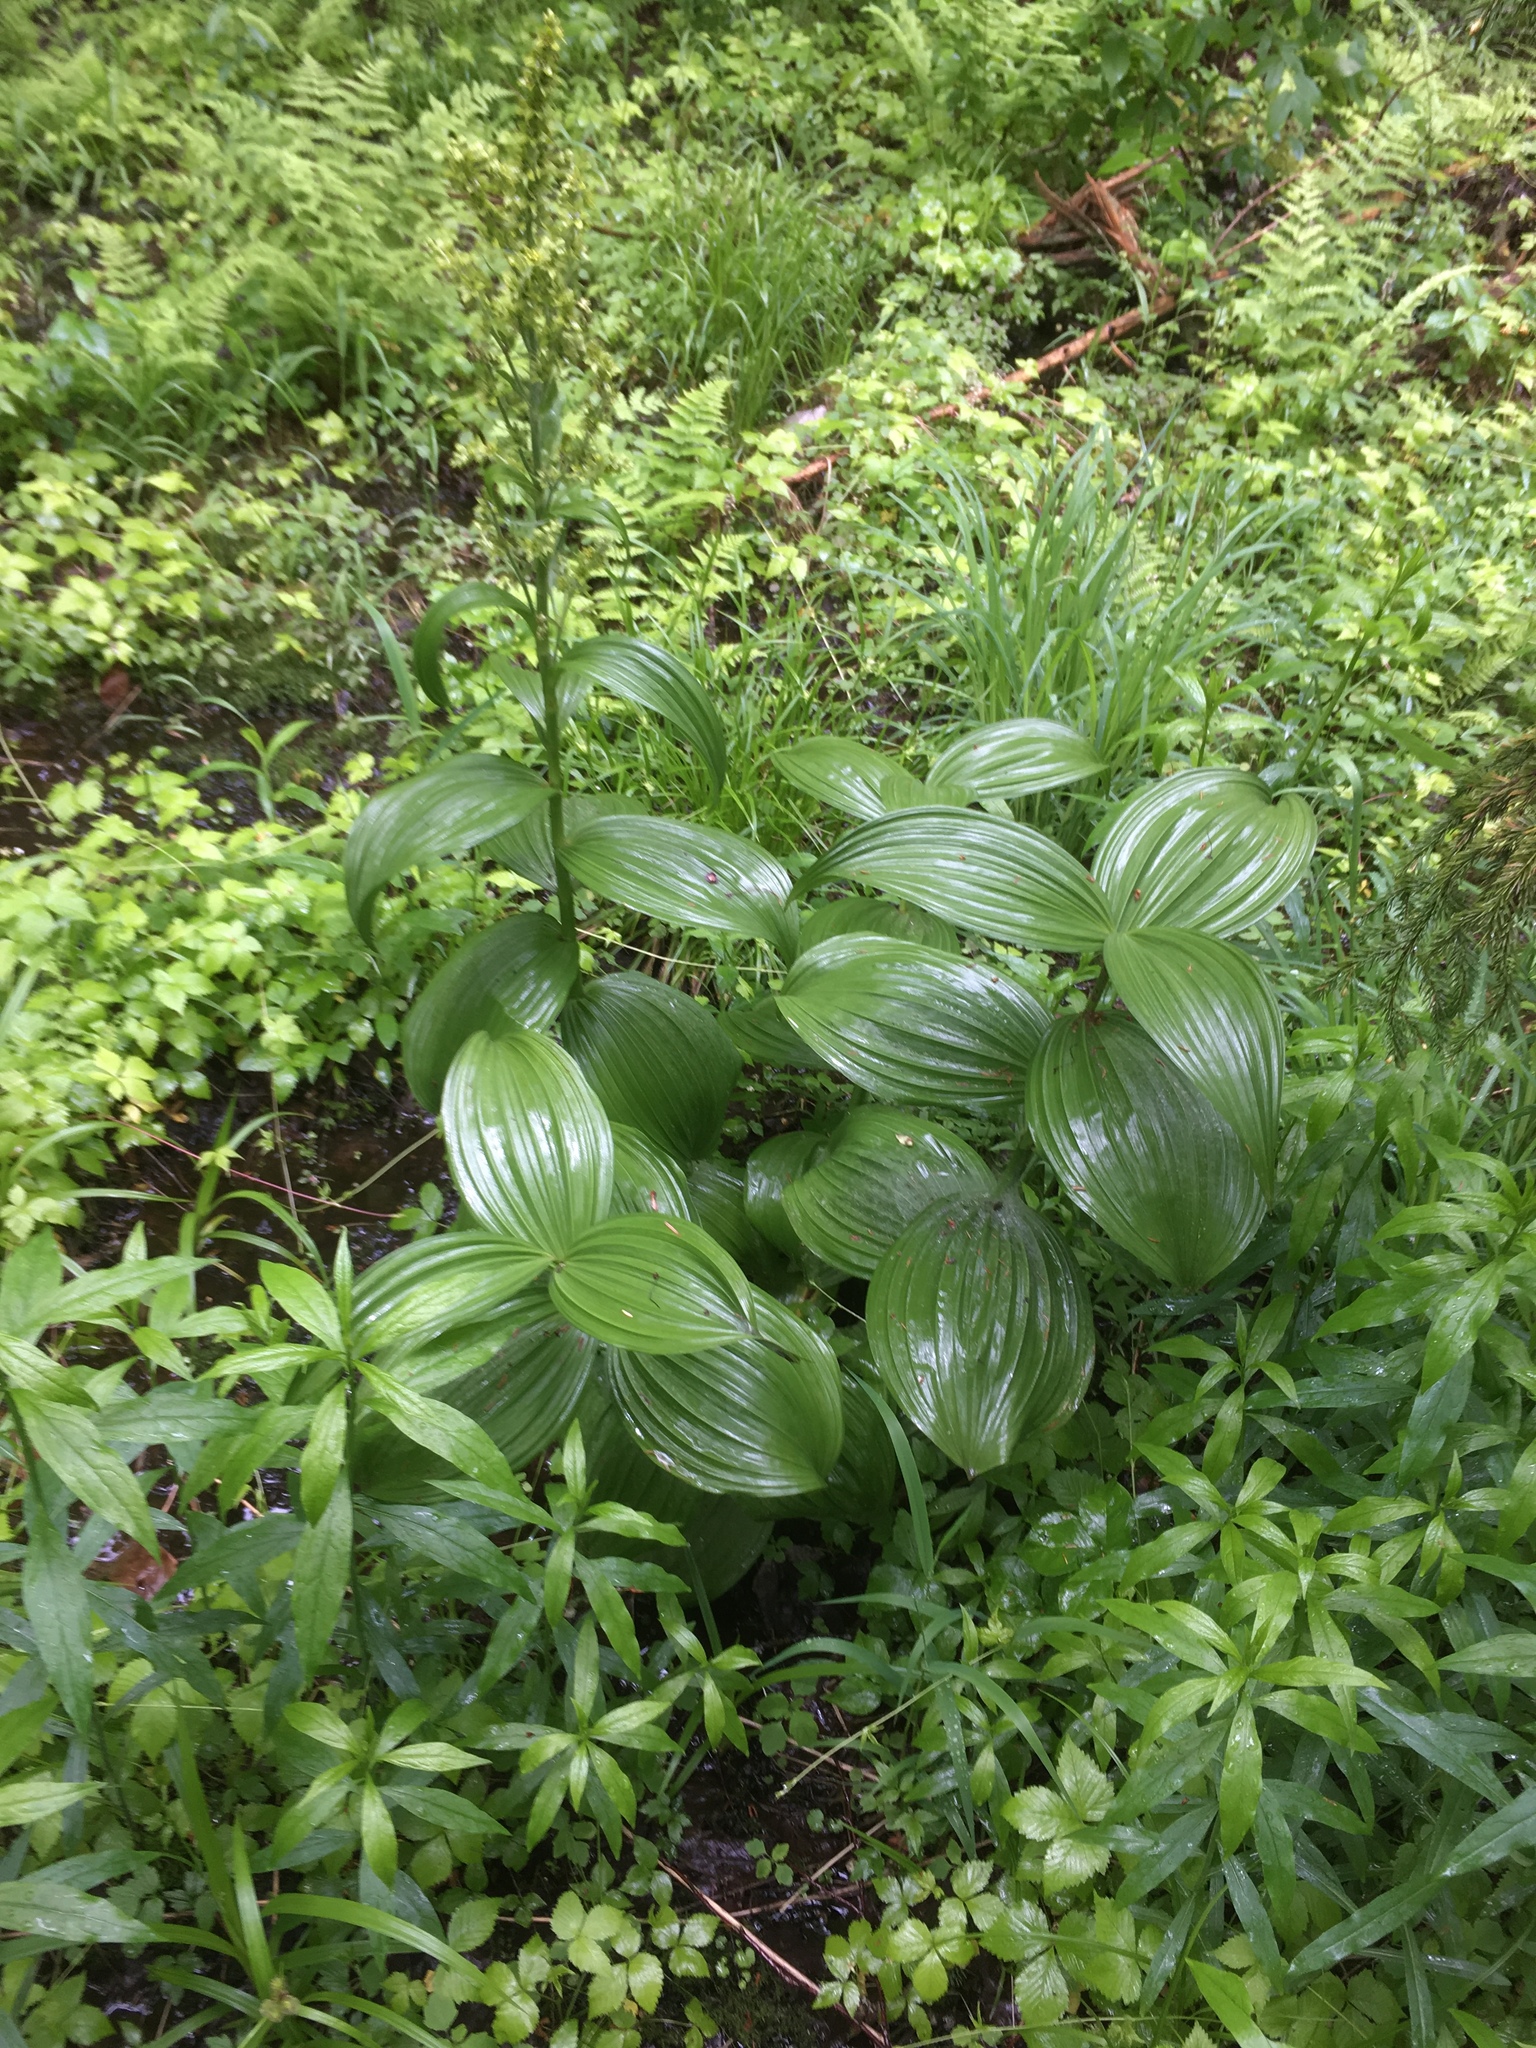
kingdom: Plantae
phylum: Tracheophyta
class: Liliopsida
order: Liliales
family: Melanthiaceae
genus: Veratrum
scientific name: Veratrum viride
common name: American false hellebore
